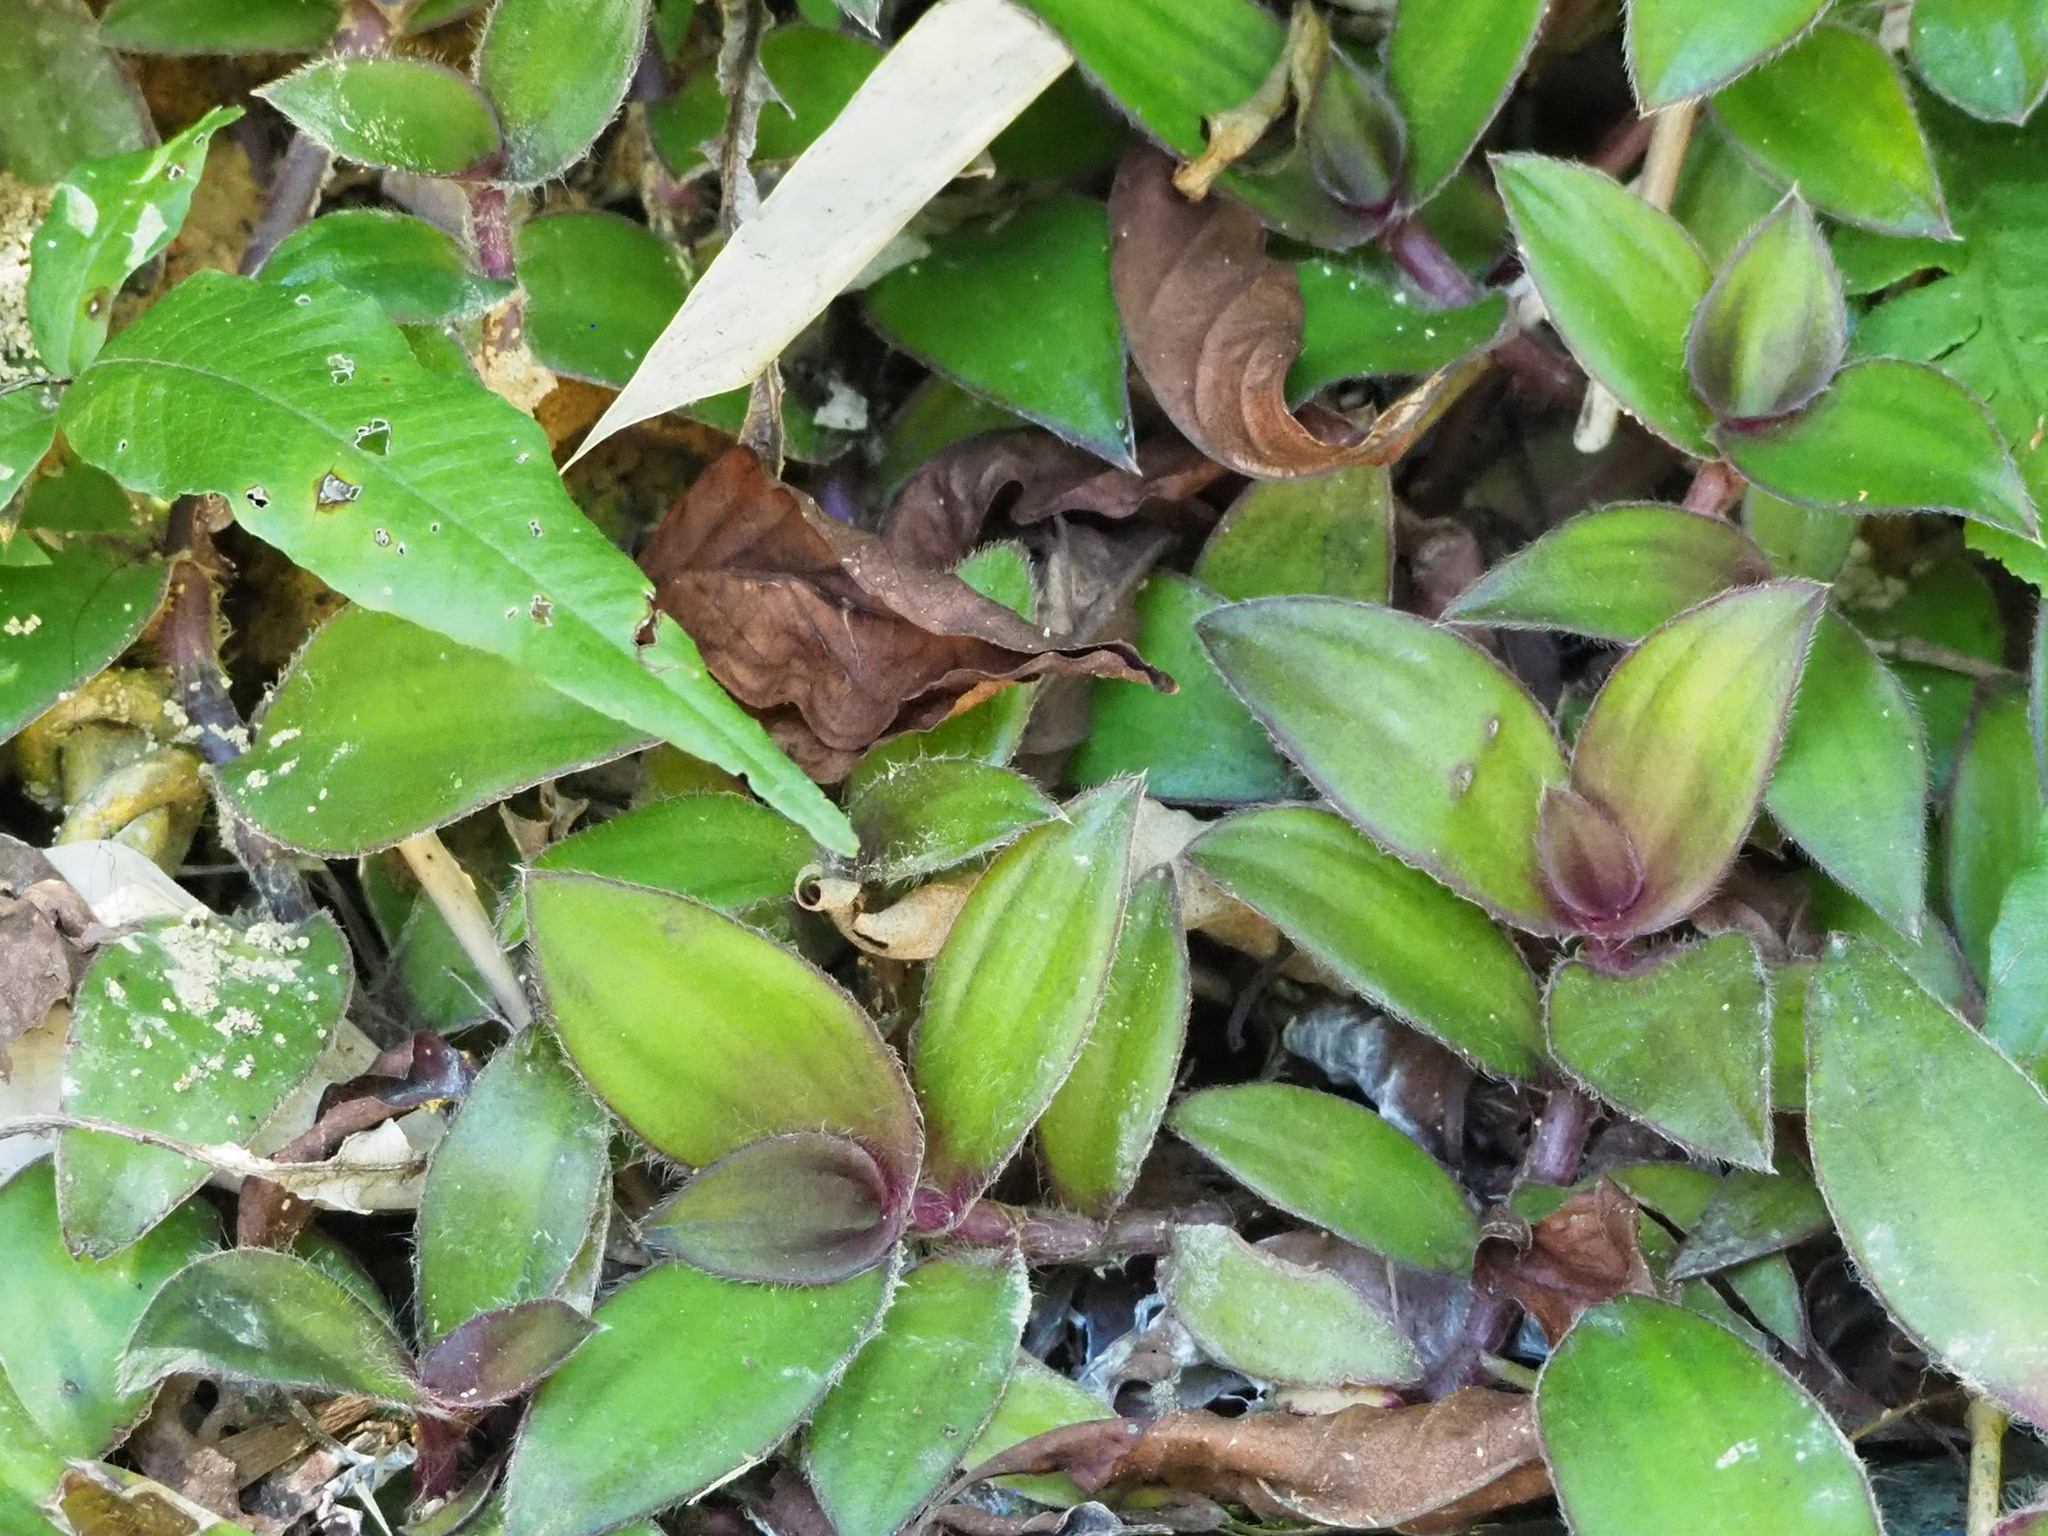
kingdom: Plantae
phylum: Tracheophyta
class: Liliopsida
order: Commelinales
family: Commelinaceae
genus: Cyanotis
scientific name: Cyanotis ciliata
